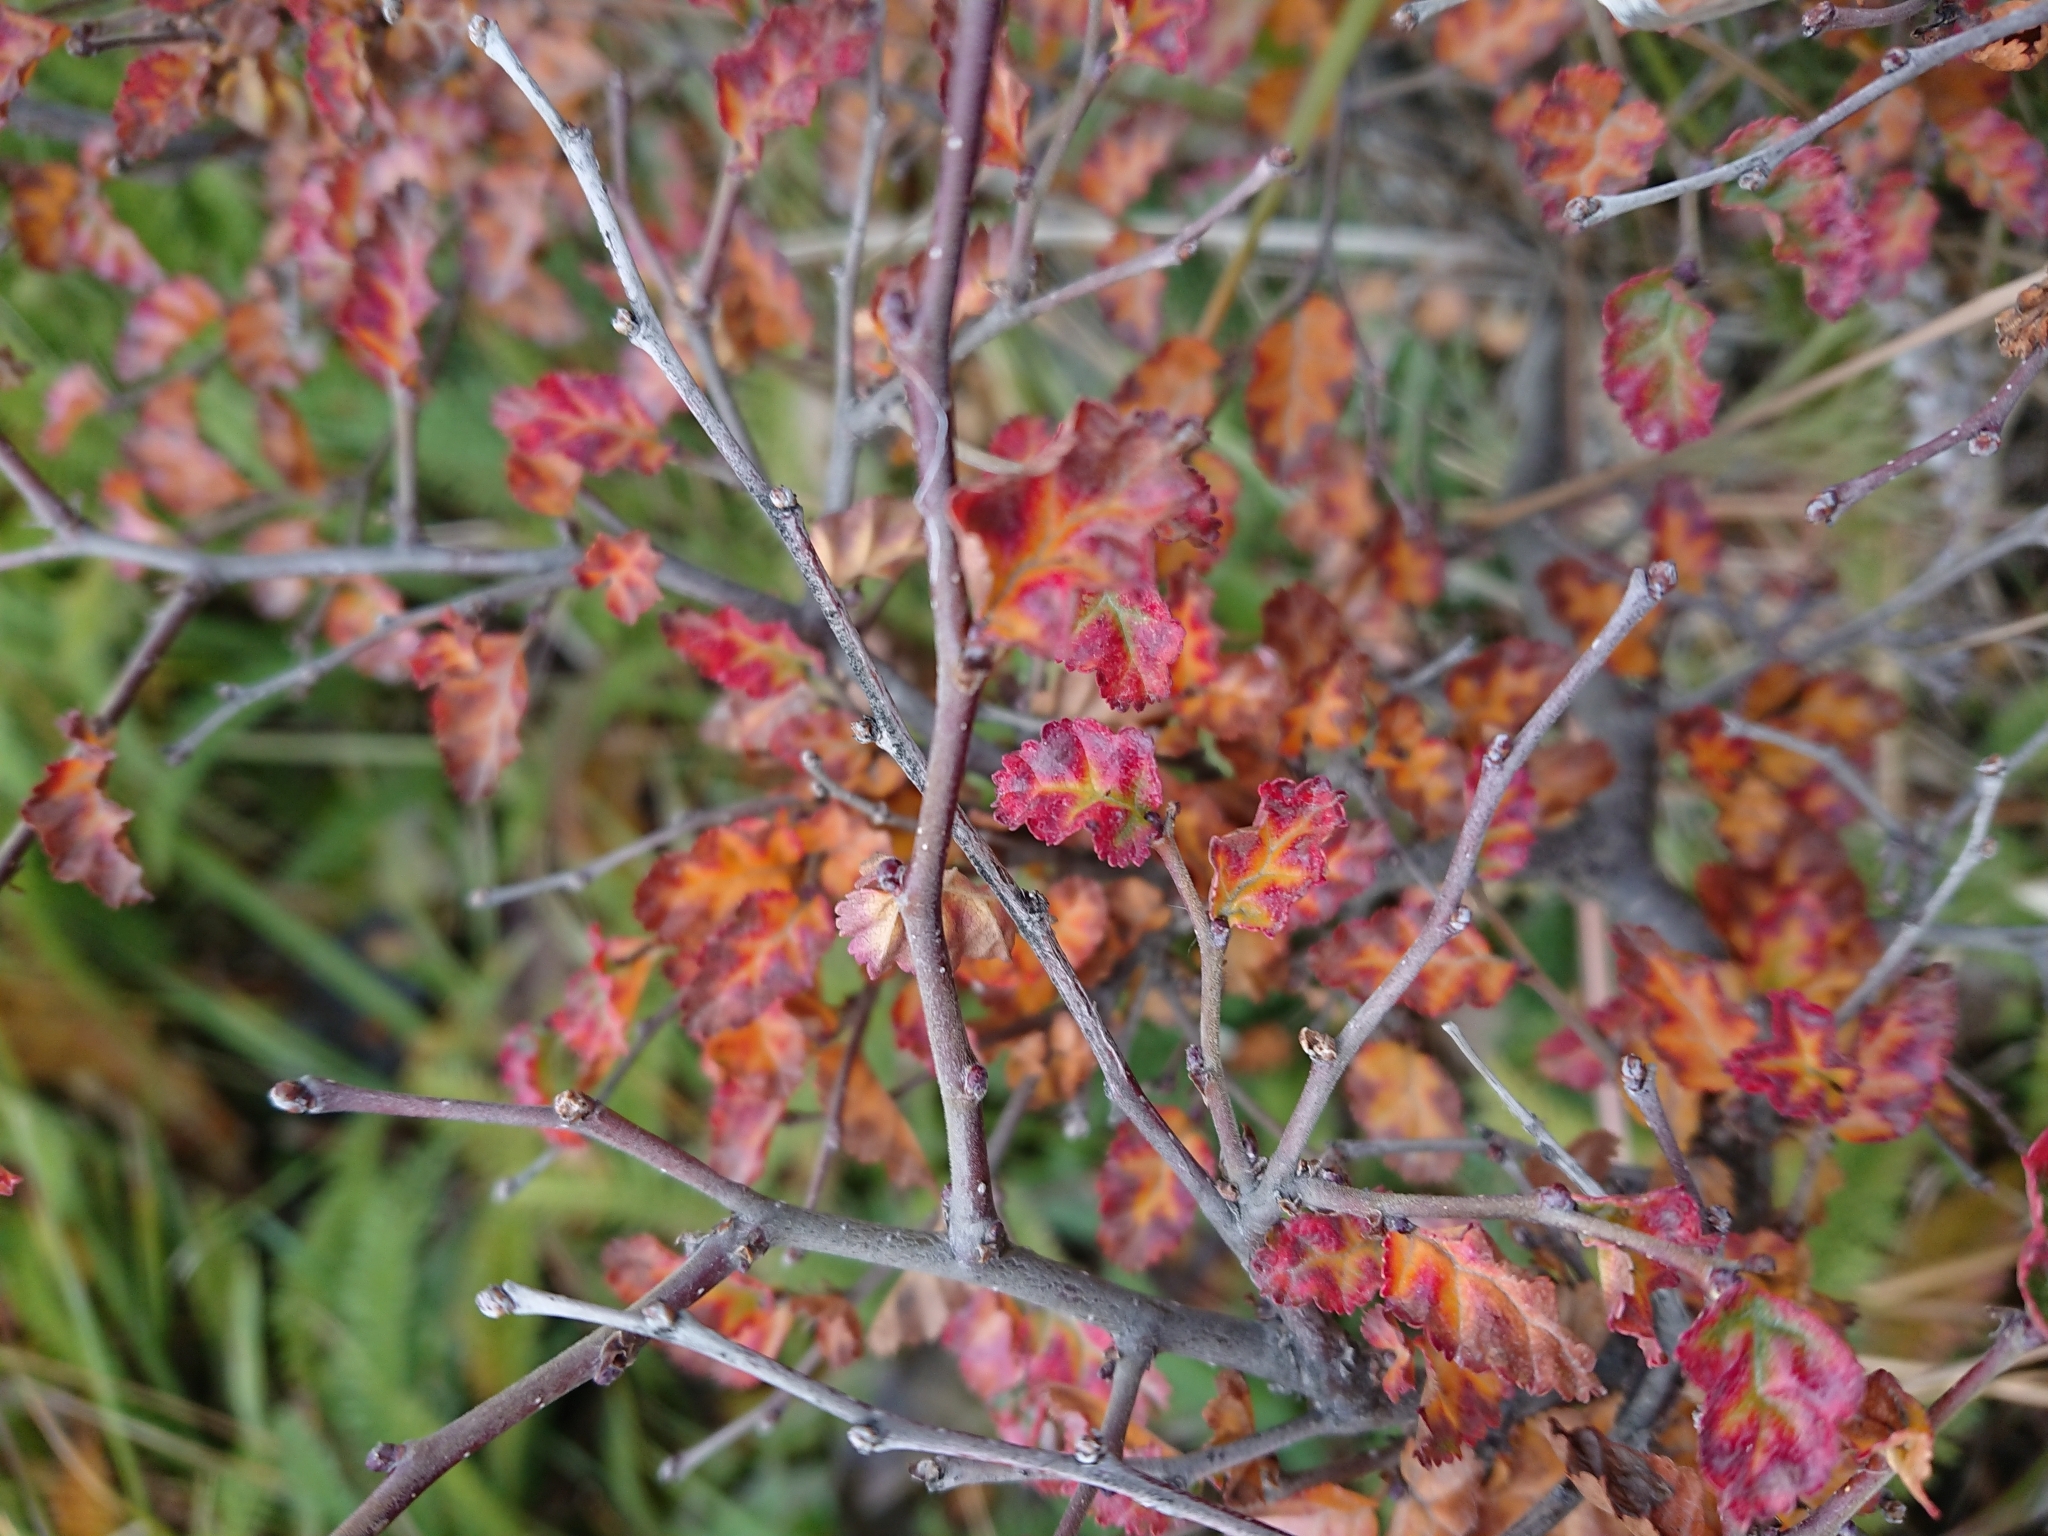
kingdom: Plantae
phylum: Tracheophyta
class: Magnoliopsida
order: Fagales
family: Nothofagaceae
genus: Nothofagus
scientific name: Nothofagus antarctica
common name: Antarctic beech
